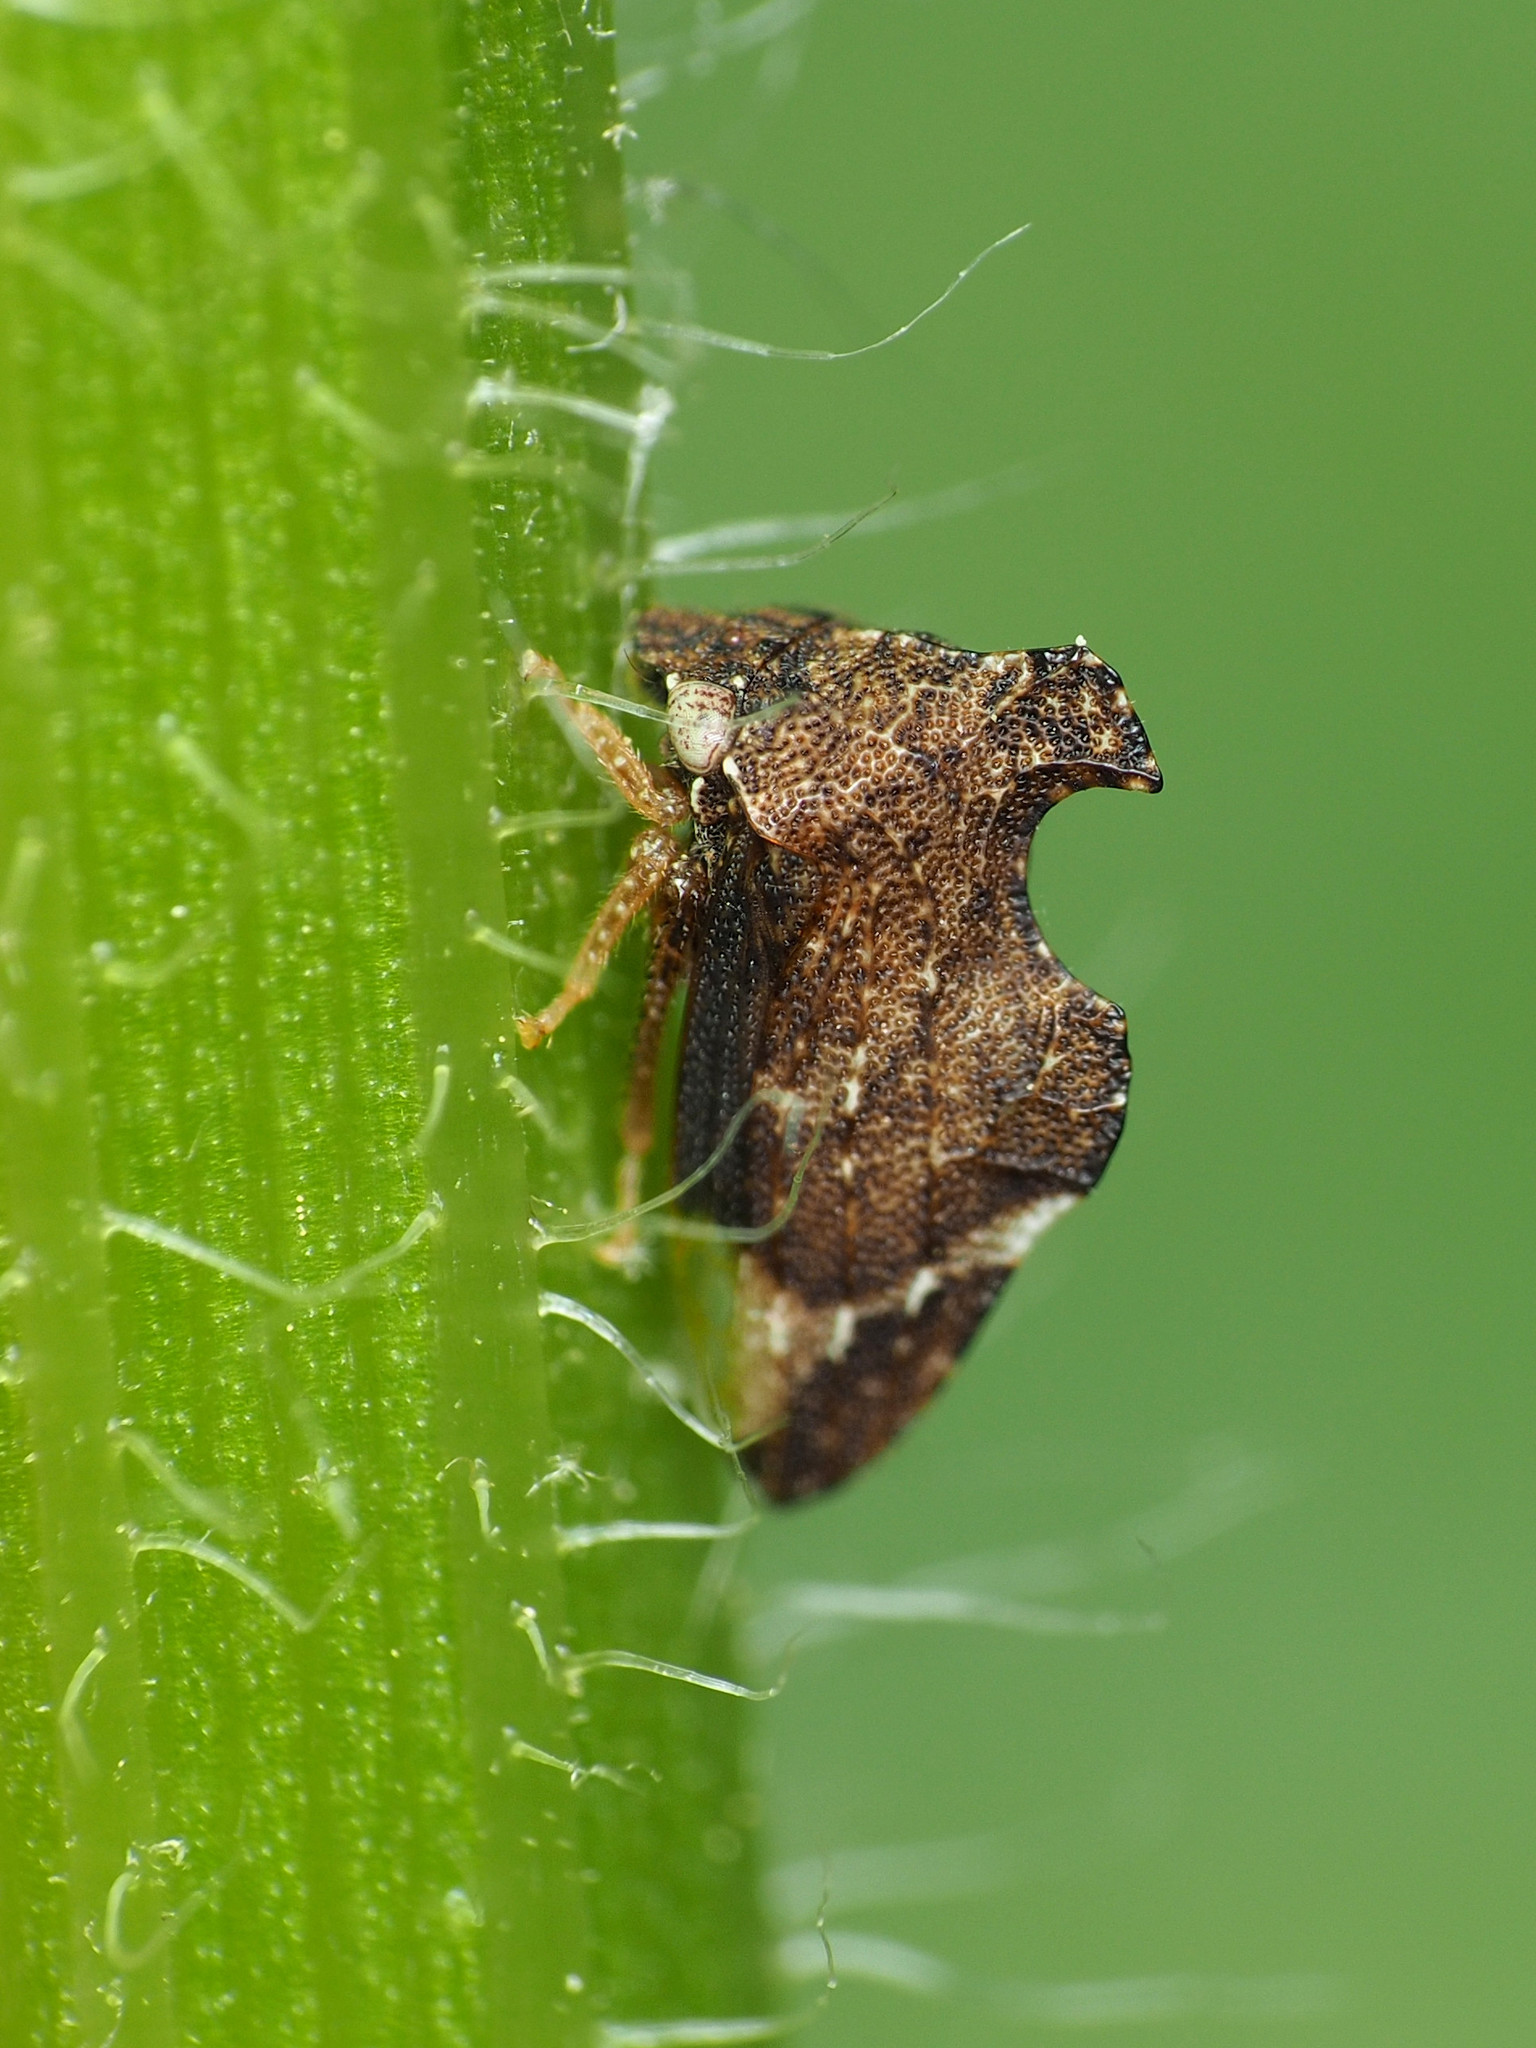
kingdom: Animalia
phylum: Arthropoda
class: Insecta
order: Hemiptera
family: Membracidae
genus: Entylia
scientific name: Entylia carinata
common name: Keeled treehopper
